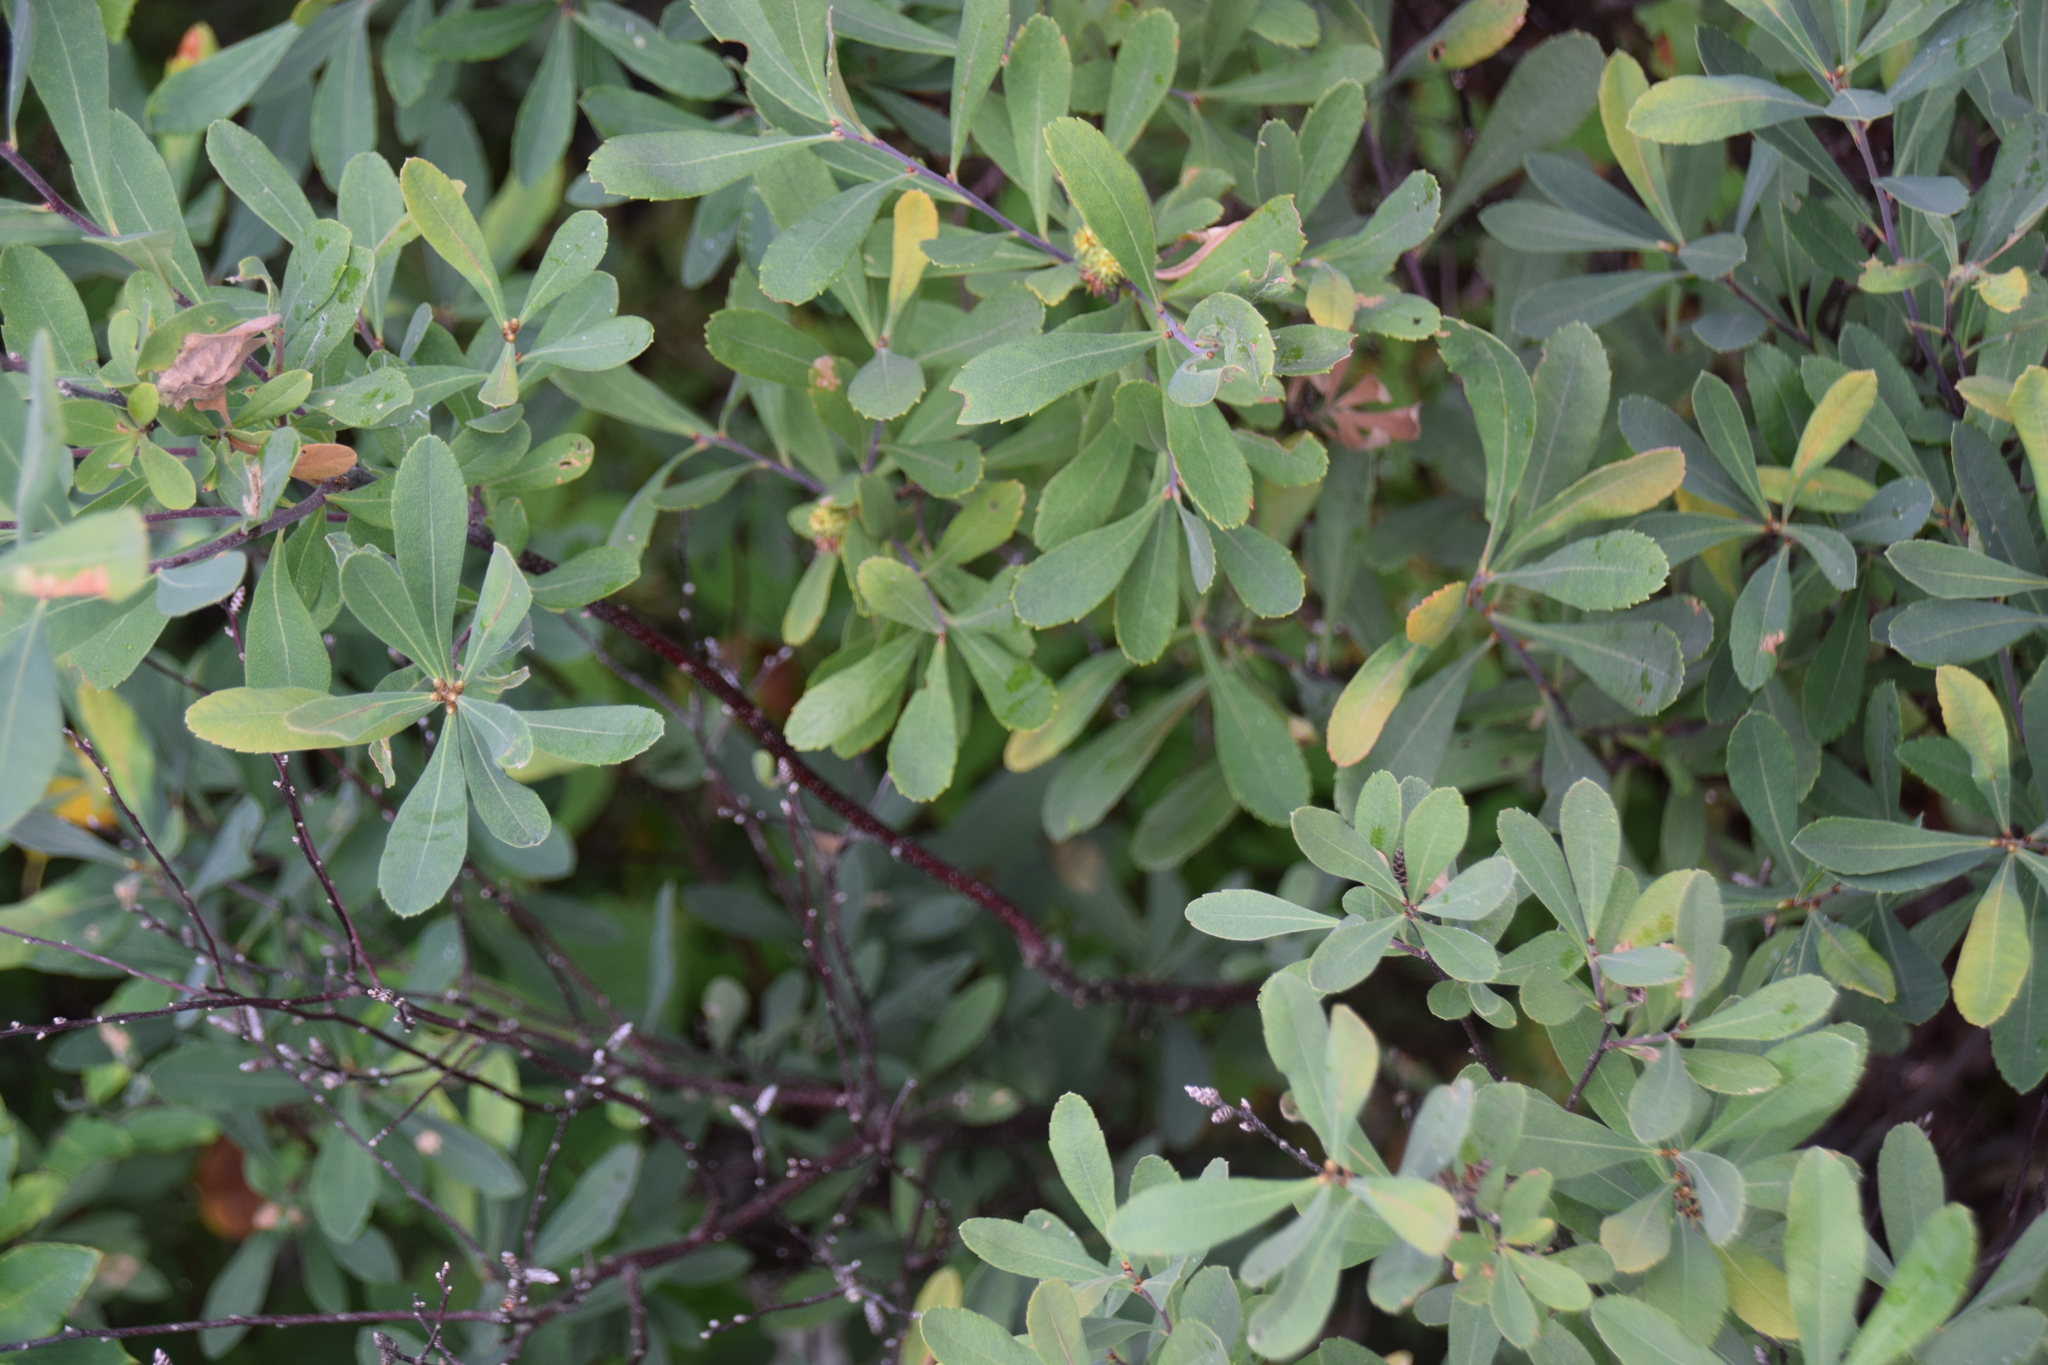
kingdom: Plantae
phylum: Tracheophyta
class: Magnoliopsida
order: Fagales
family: Myricaceae
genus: Myrica
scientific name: Myrica gale
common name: Sweet gale
